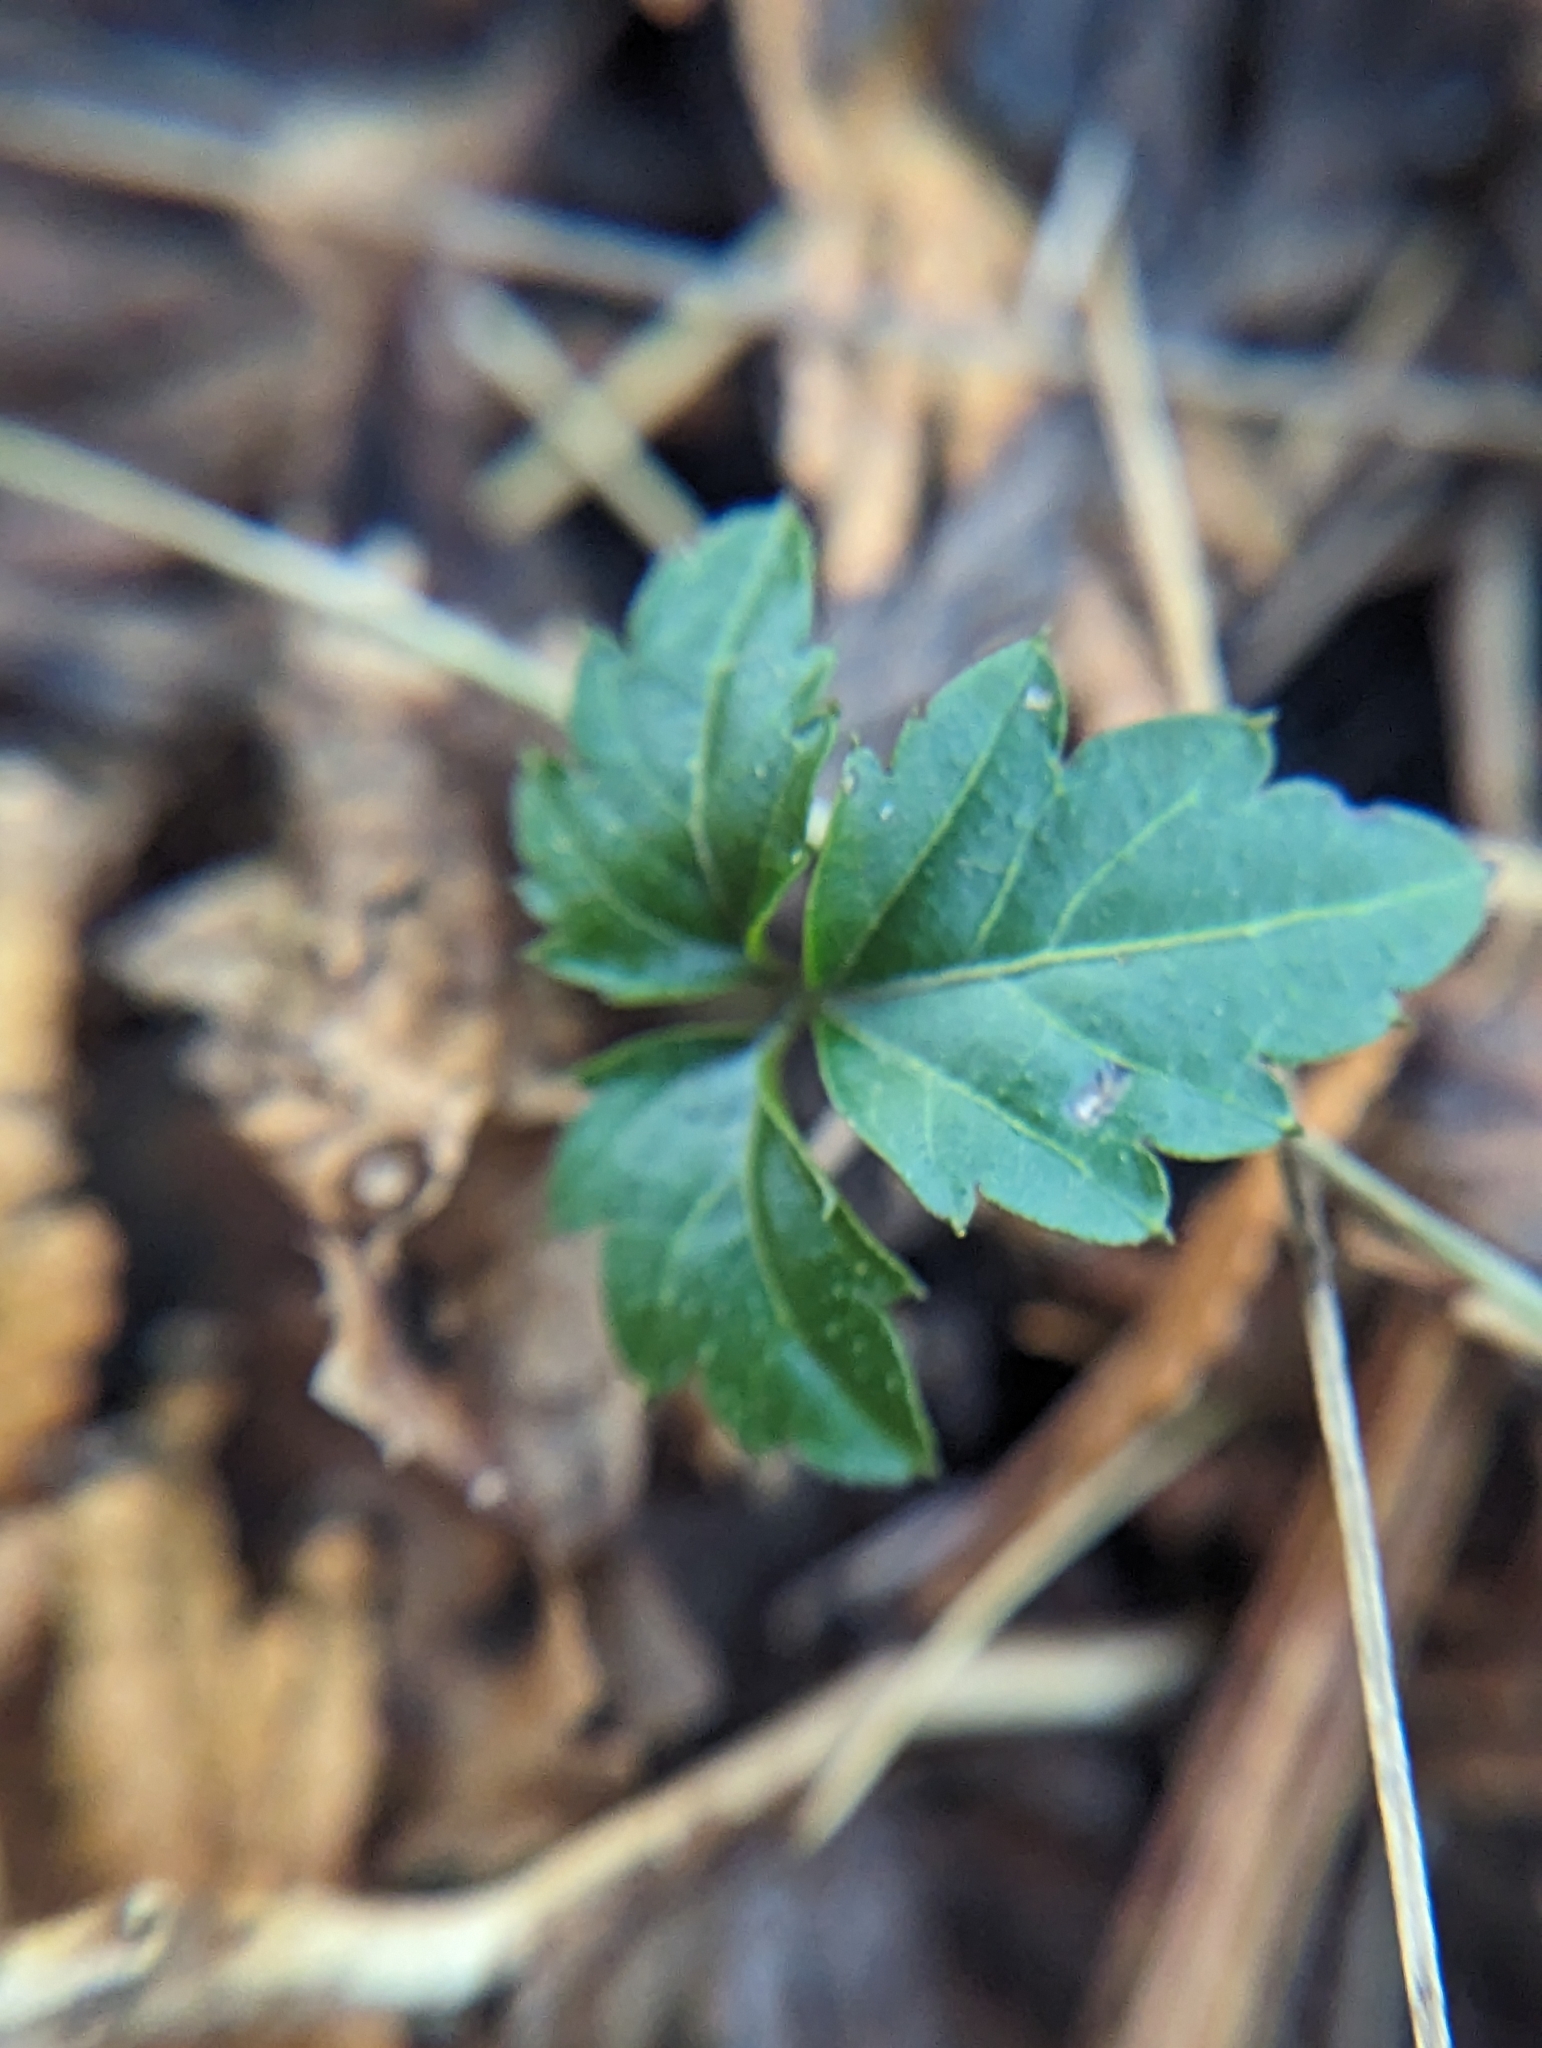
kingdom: Plantae
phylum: Tracheophyta
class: Magnoliopsida
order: Brassicales
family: Brassicaceae
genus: Cardamine
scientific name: Cardamine diphylla
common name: Broad-leaved toothwort
